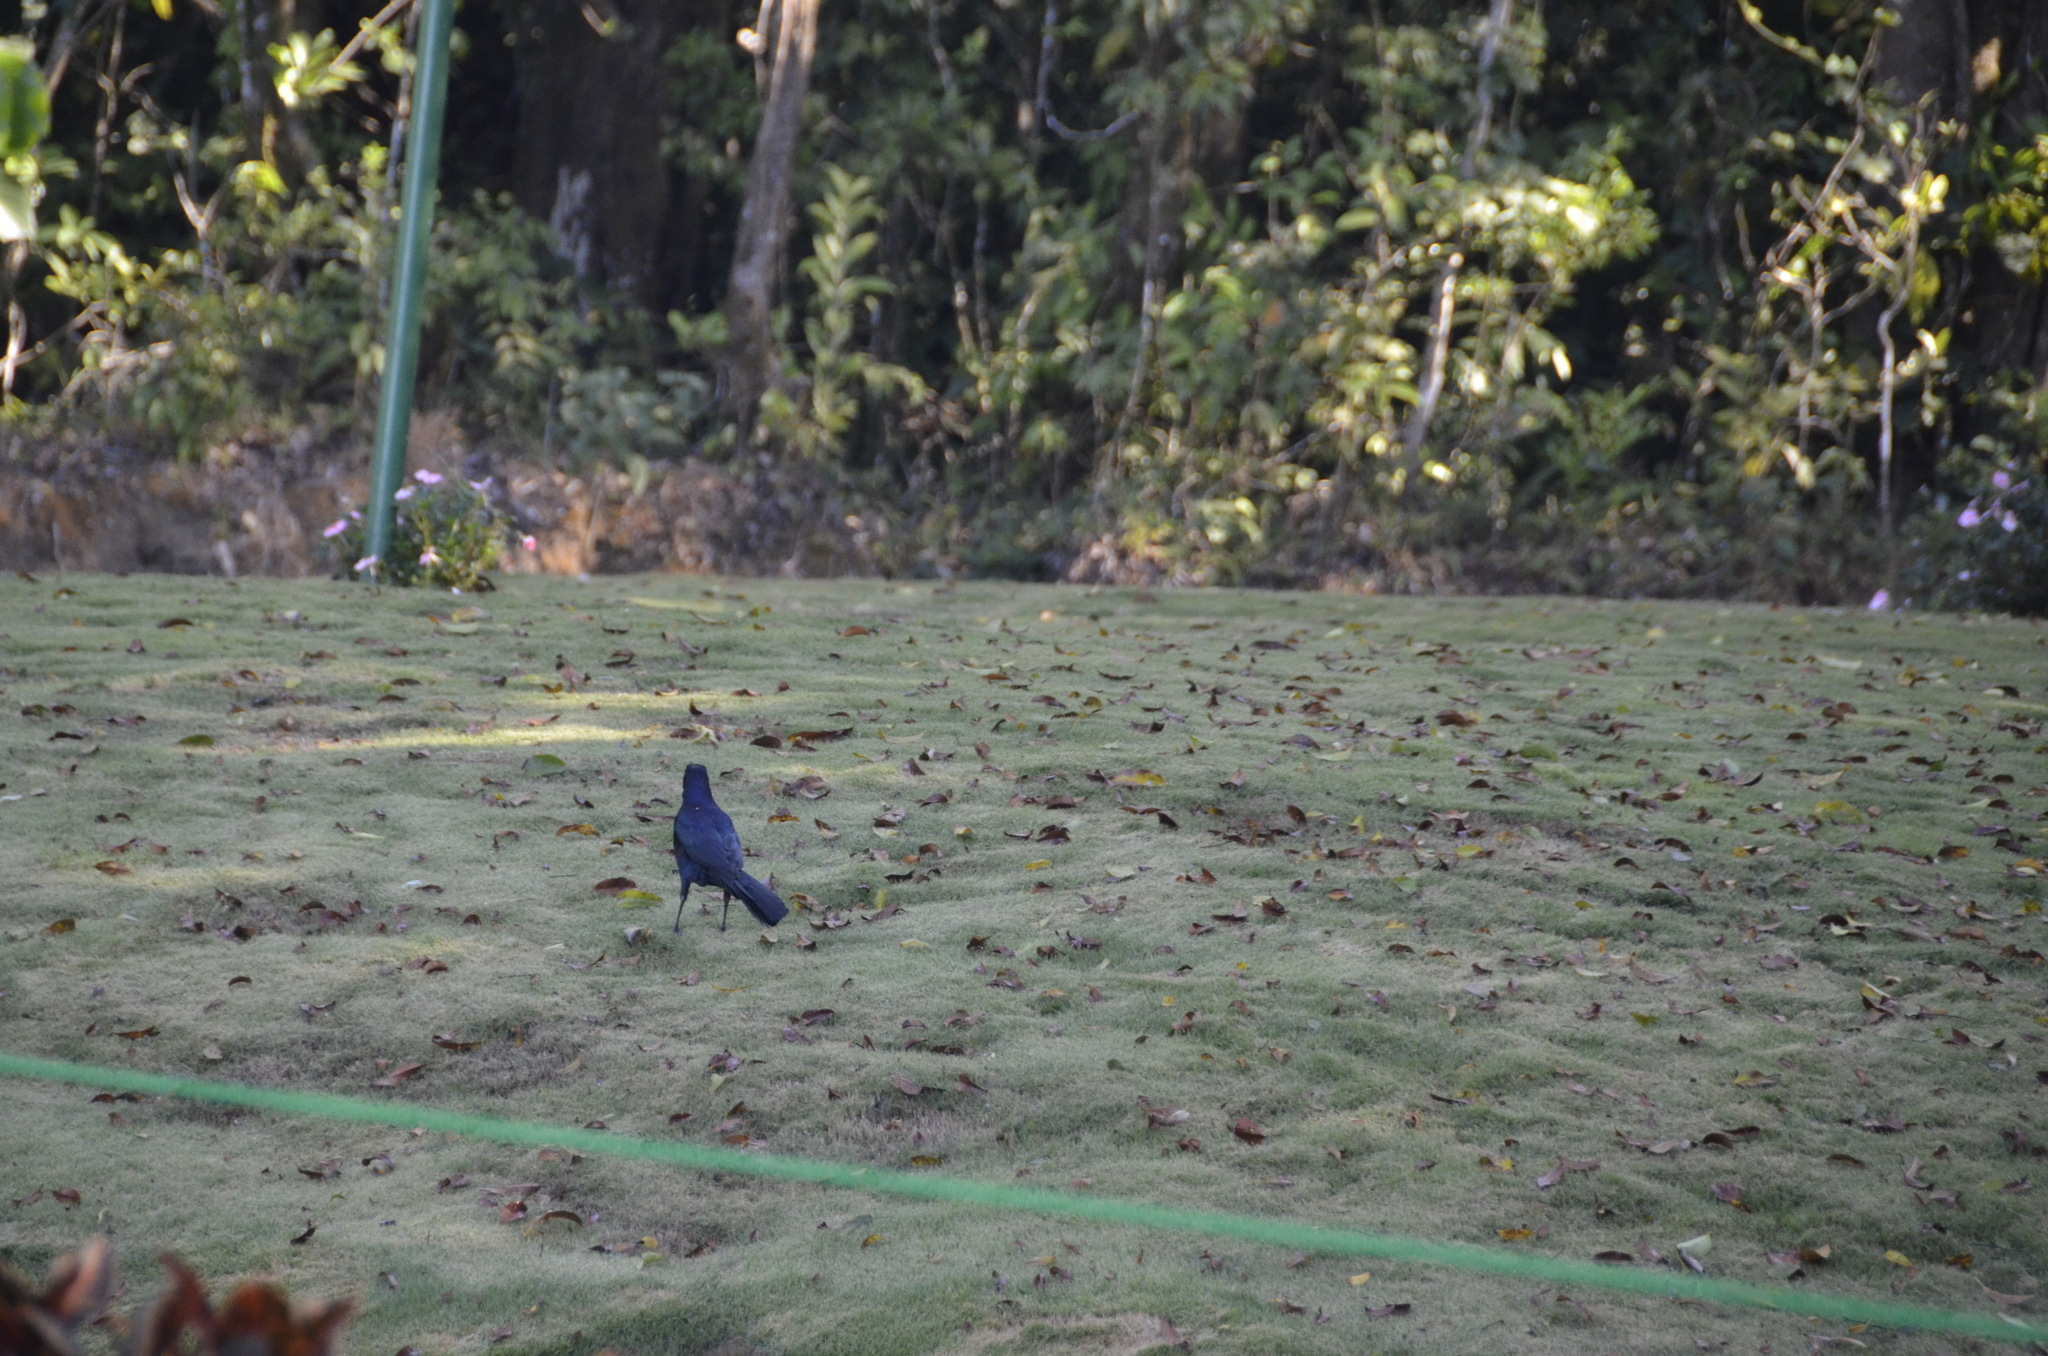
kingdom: Animalia
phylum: Chordata
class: Aves
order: Passeriformes
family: Icteridae
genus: Quiscalus
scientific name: Quiscalus mexicanus
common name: Great-tailed grackle
